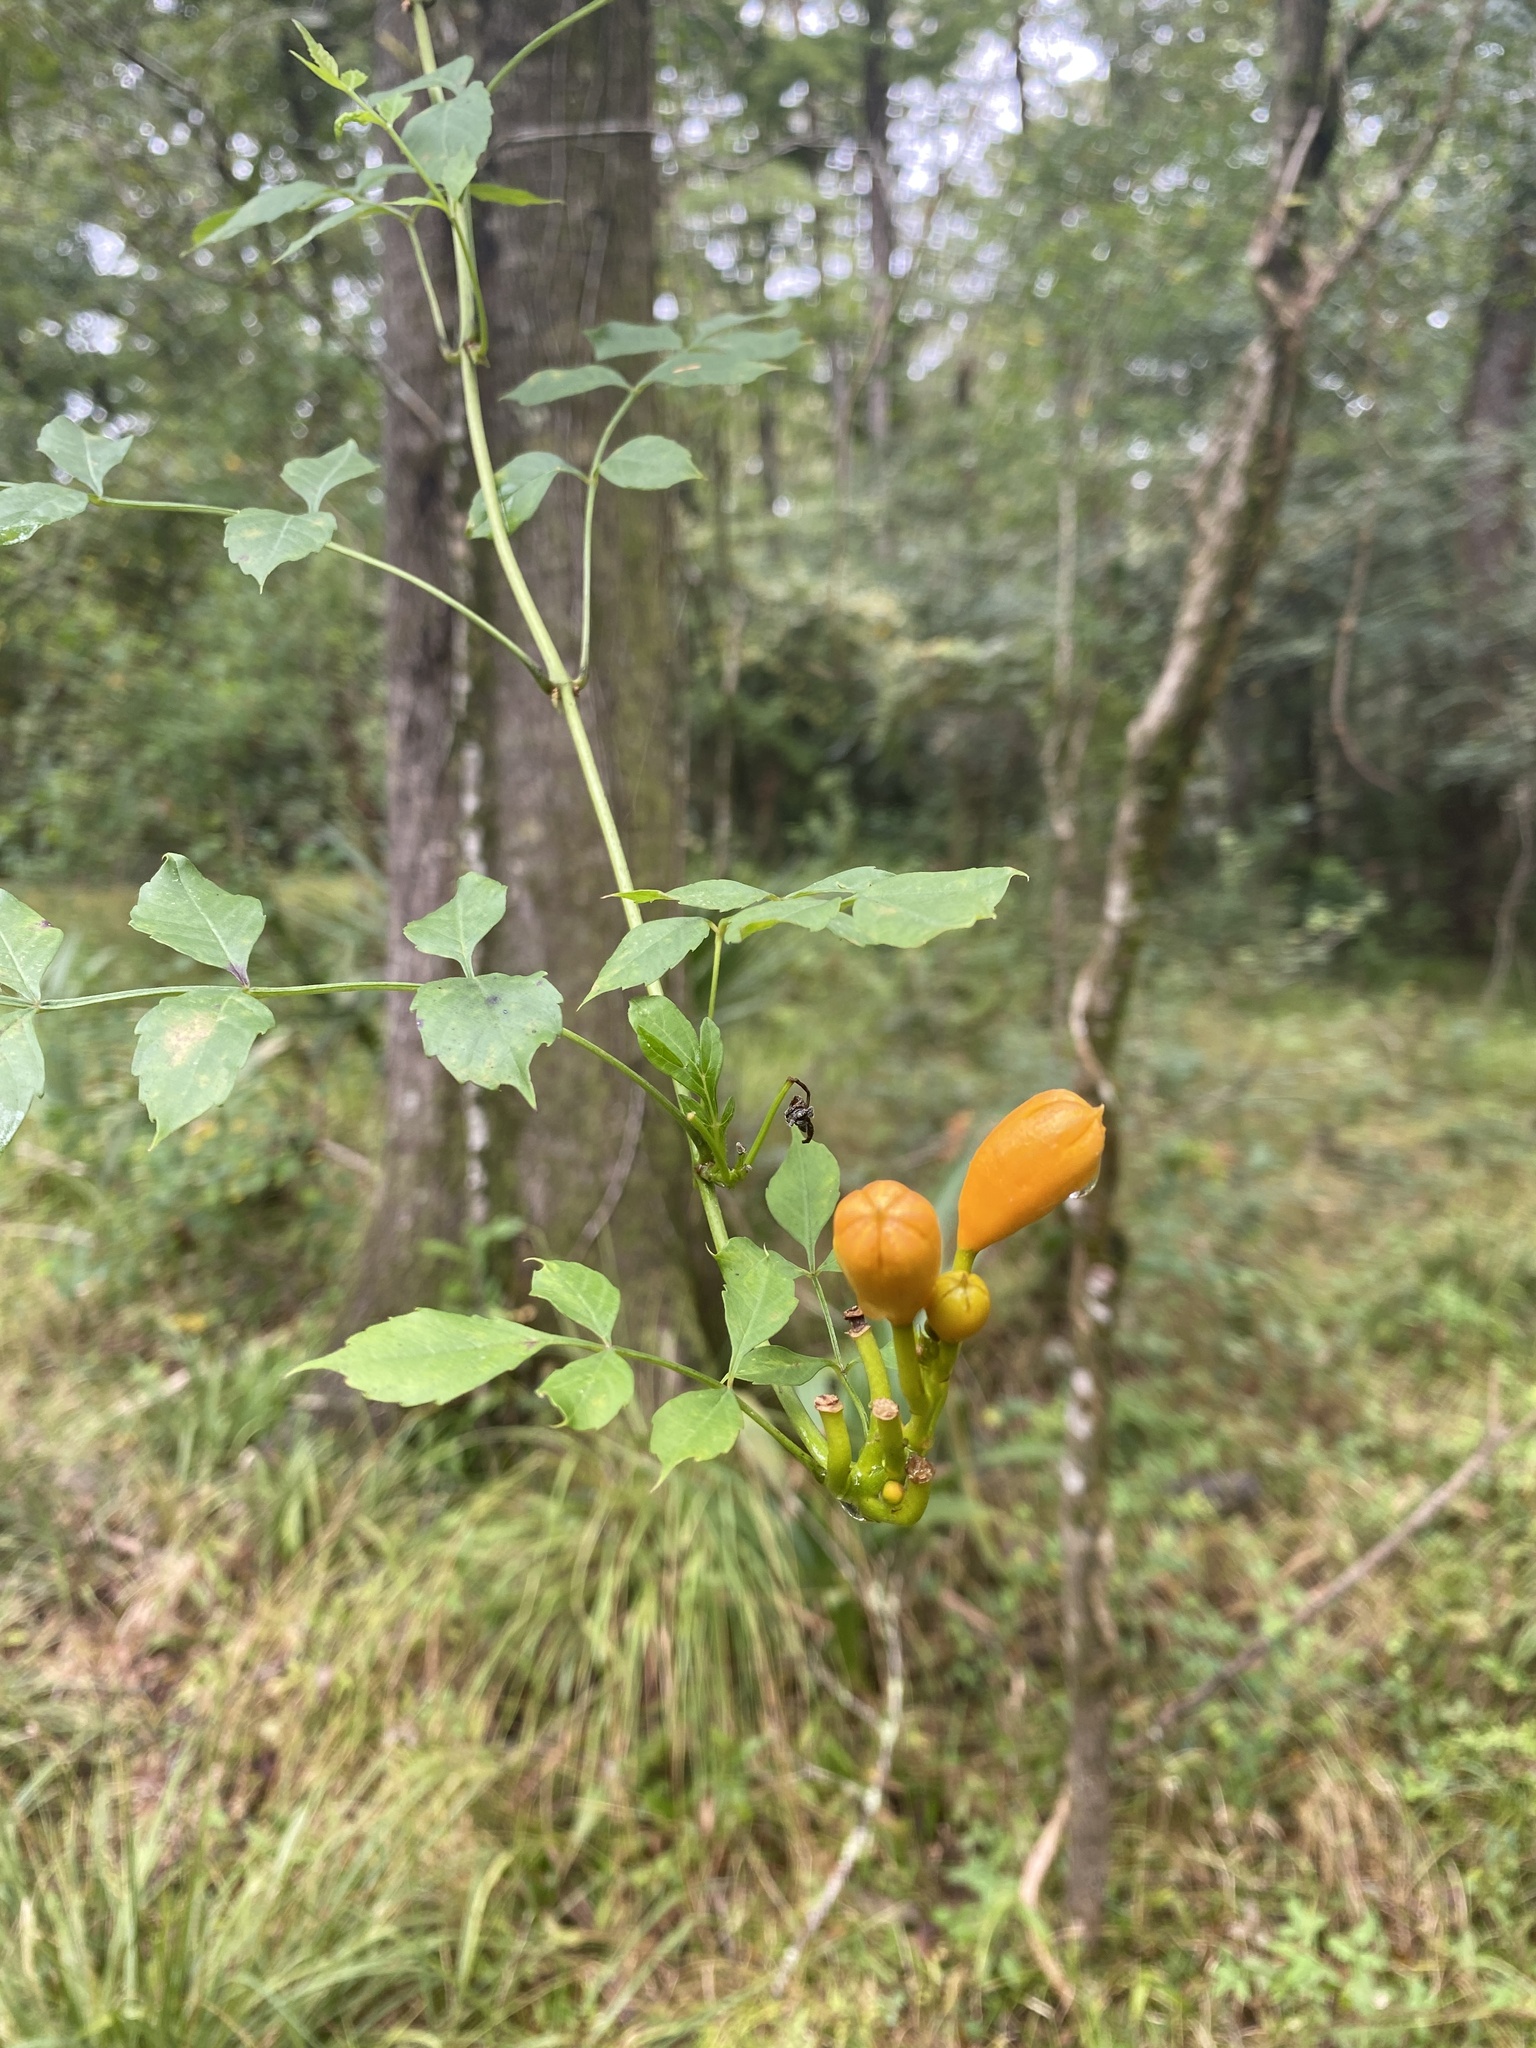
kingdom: Plantae
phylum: Tracheophyta
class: Magnoliopsida
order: Lamiales
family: Bignoniaceae
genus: Campsis
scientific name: Campsis radicans
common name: Trumpet-creeper
